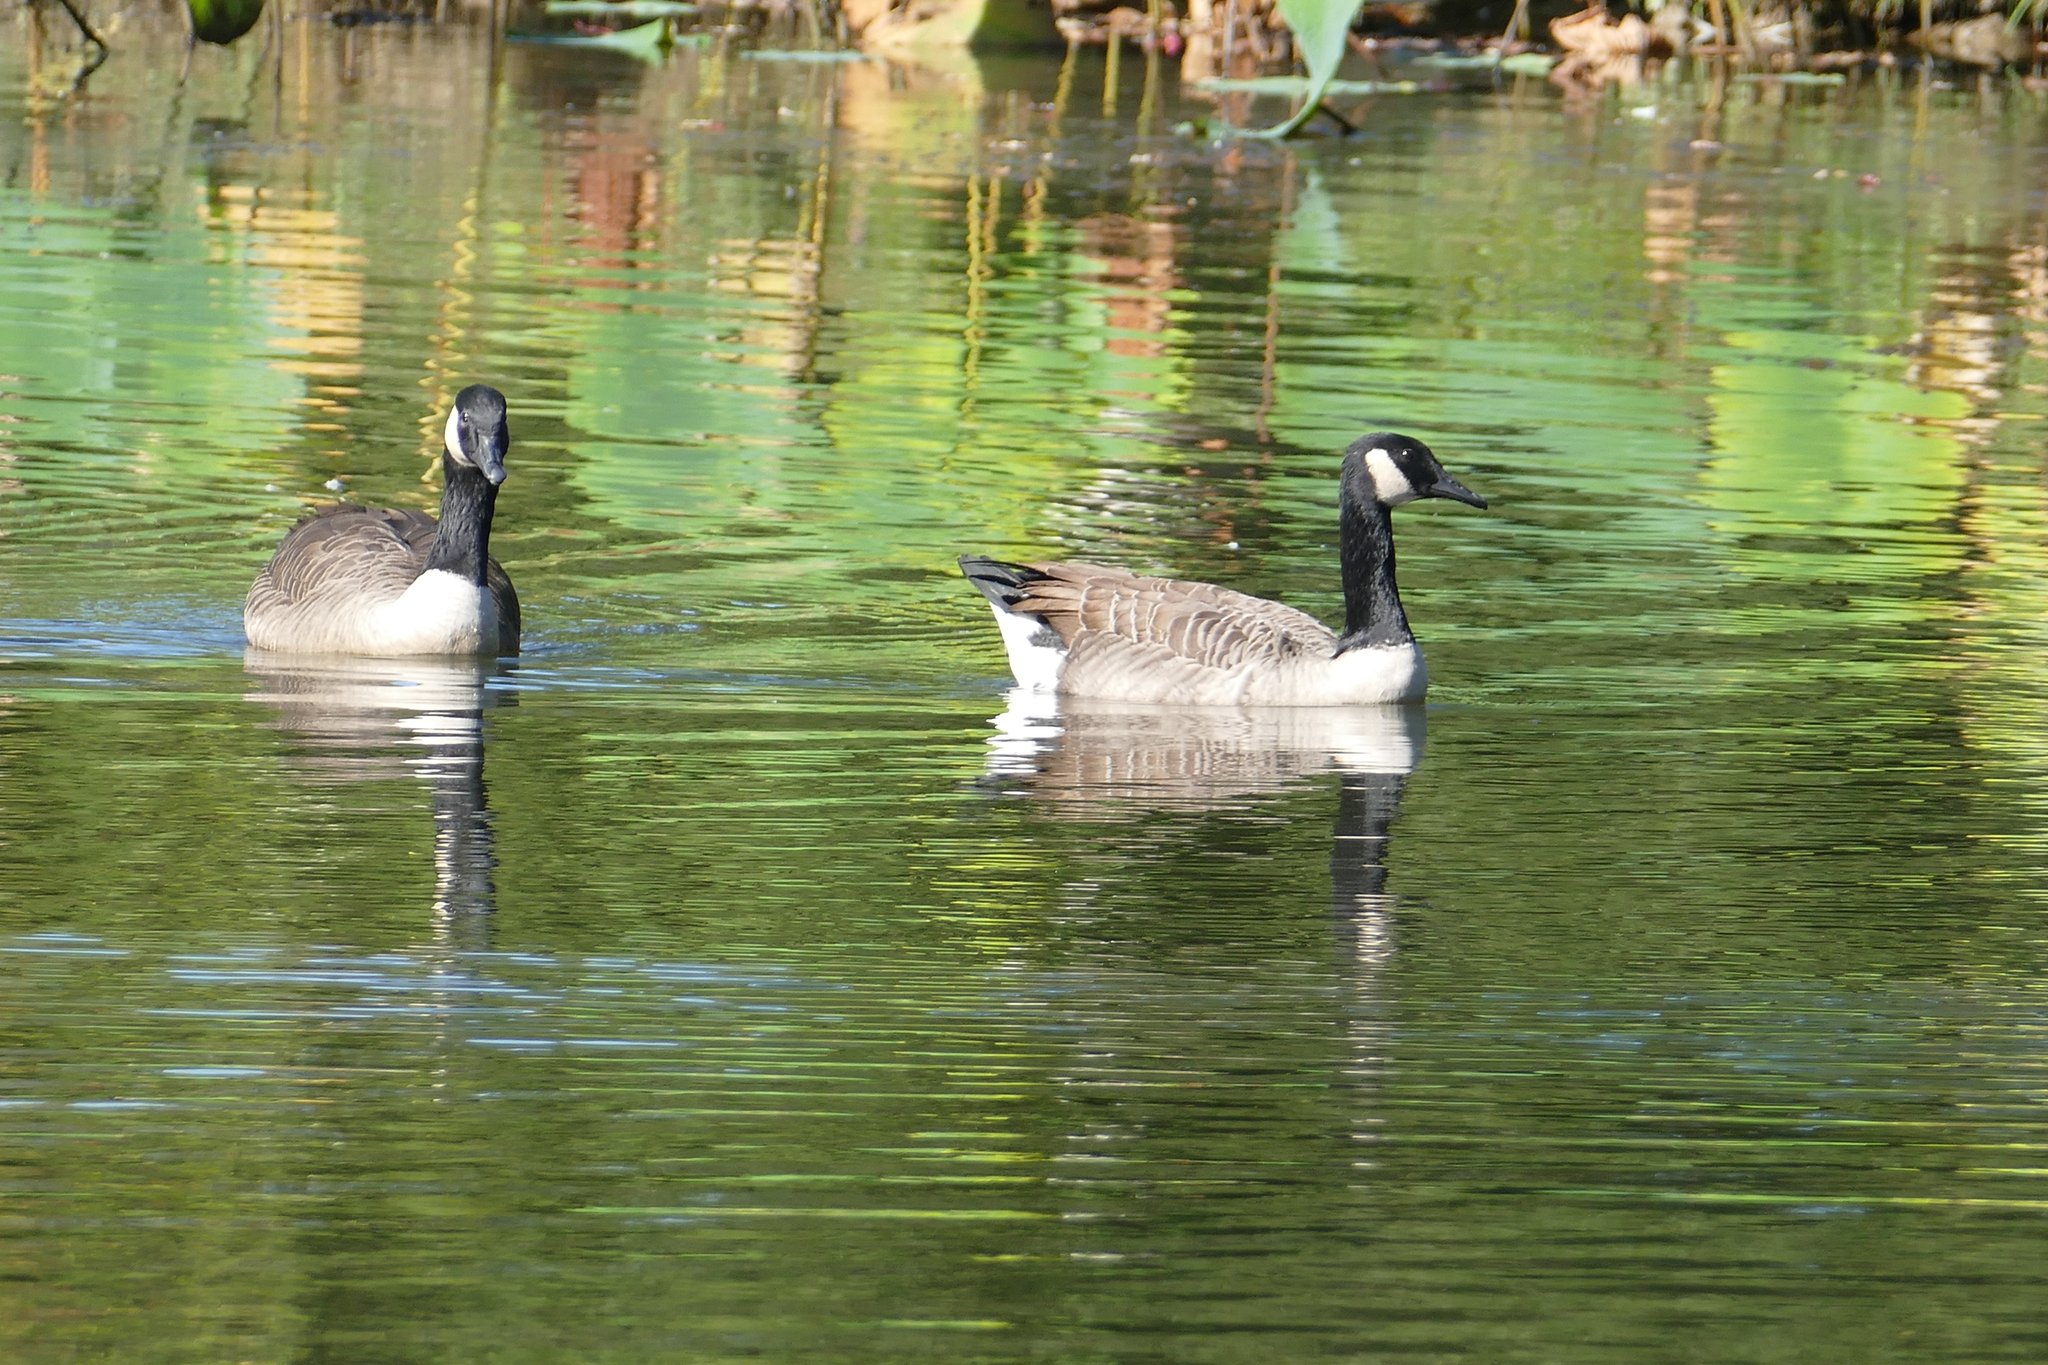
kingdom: Animalia
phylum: Chordata
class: Aves
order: Anseriformes
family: Anatidae
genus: Branta
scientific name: Branta canadensis
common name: Canada goose
